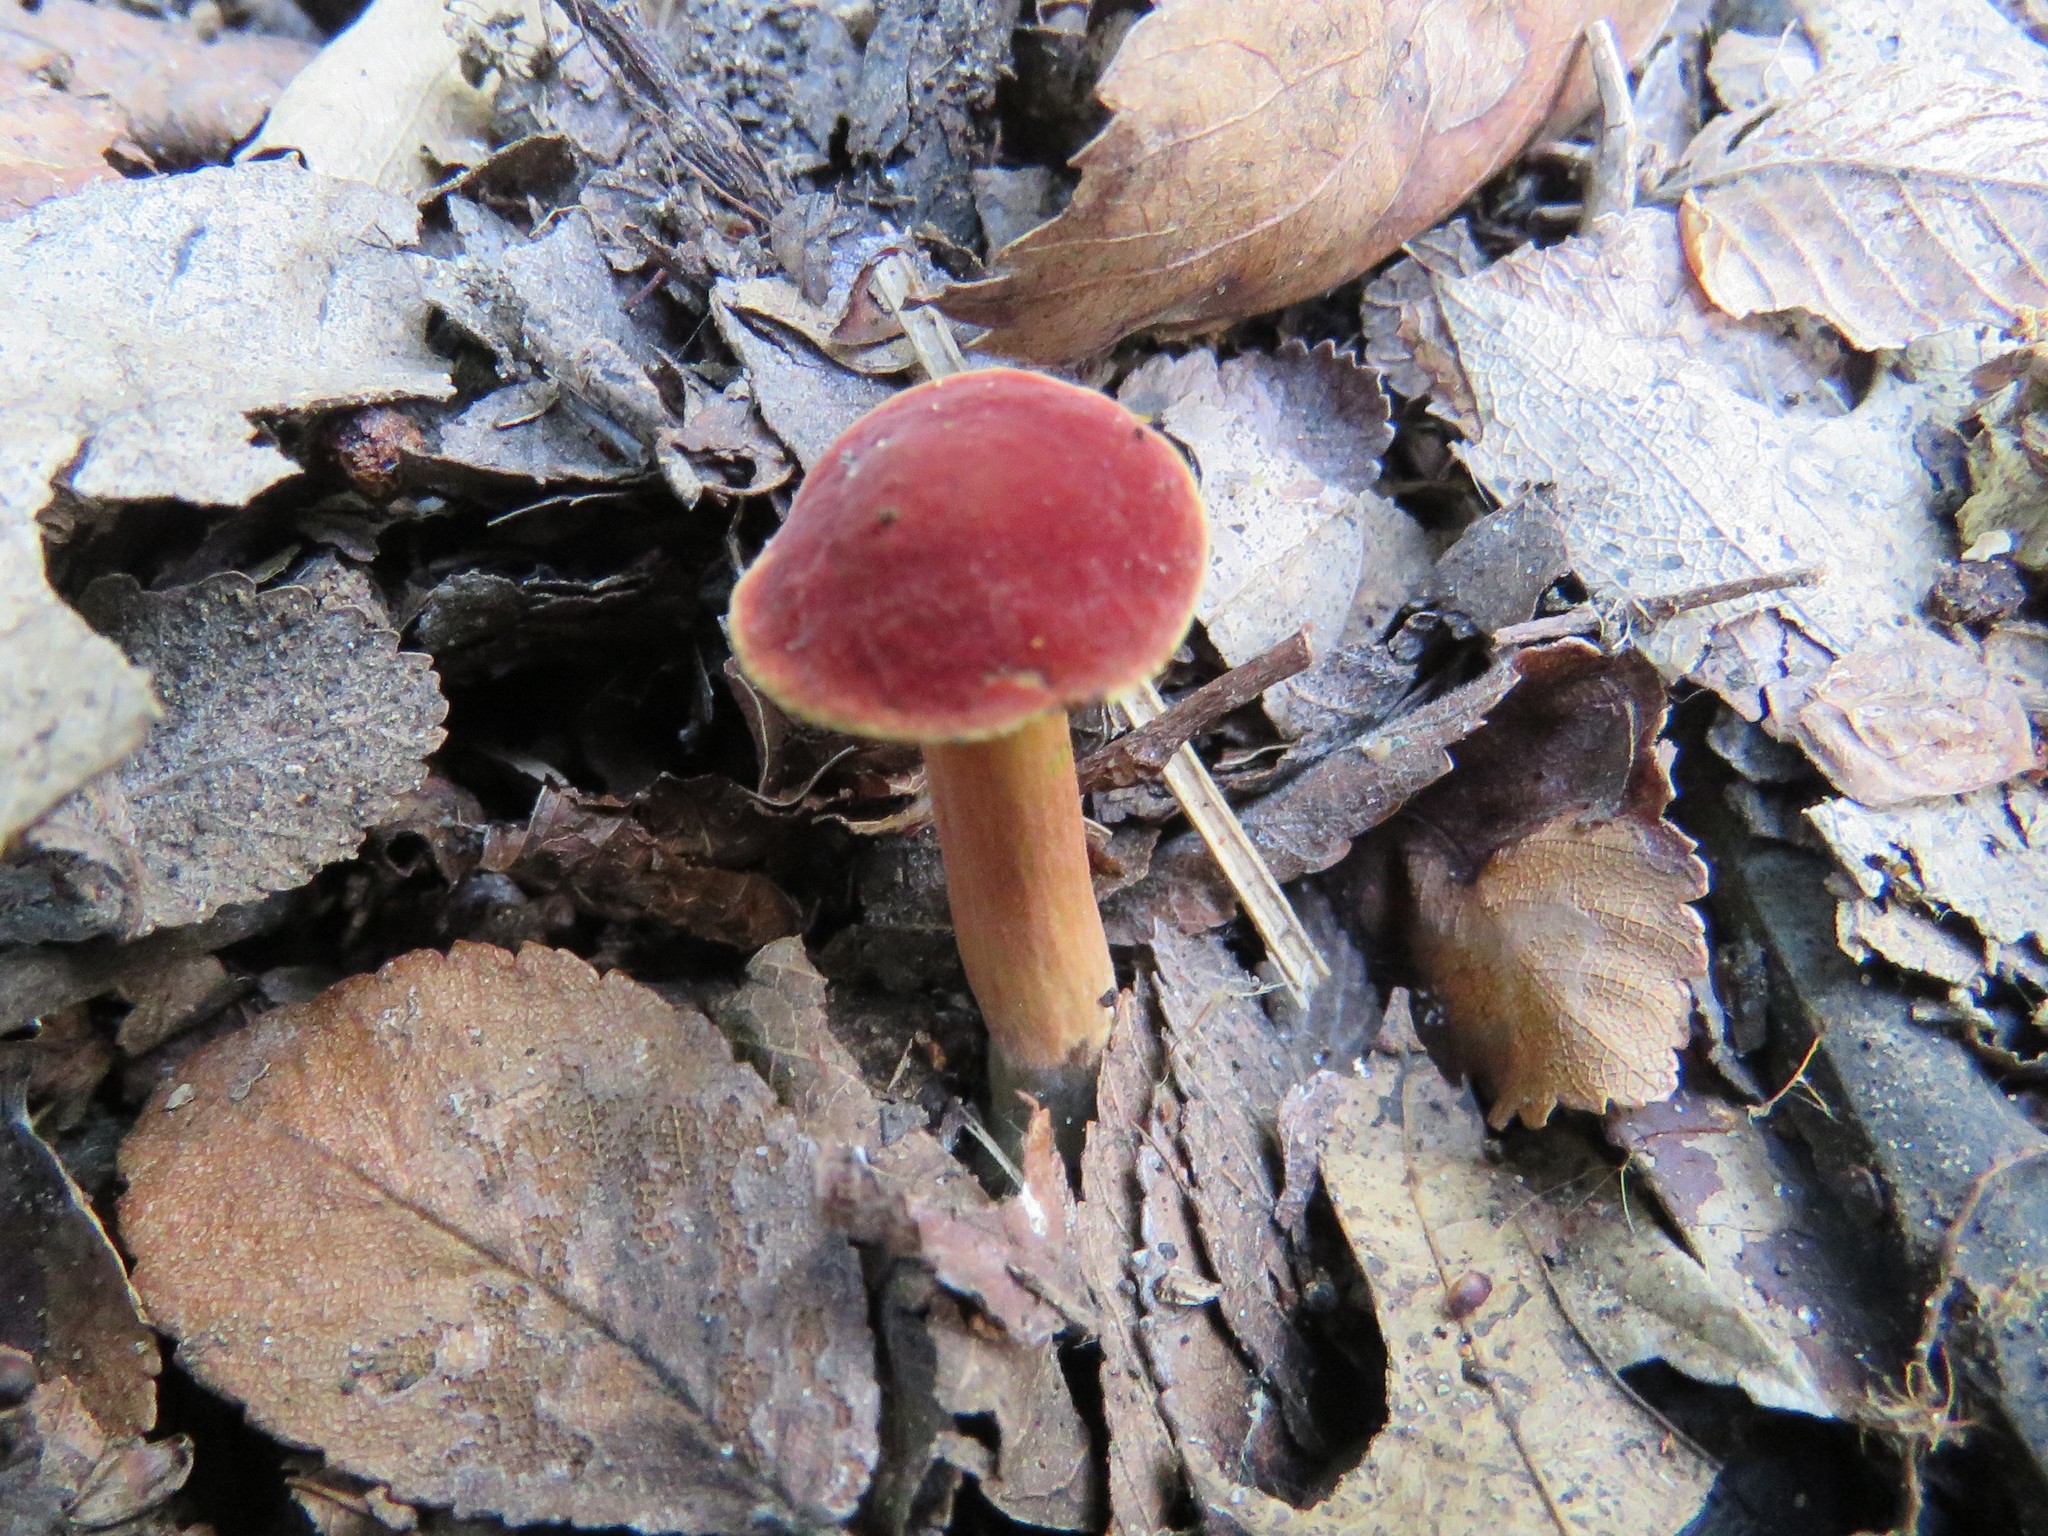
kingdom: Fungi
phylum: Basidiomycota
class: Agaricomycetes
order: Boletales
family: Boletaceae
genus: Hortiboletus
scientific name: Hortiboletus rubellus
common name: Ruby bolete
